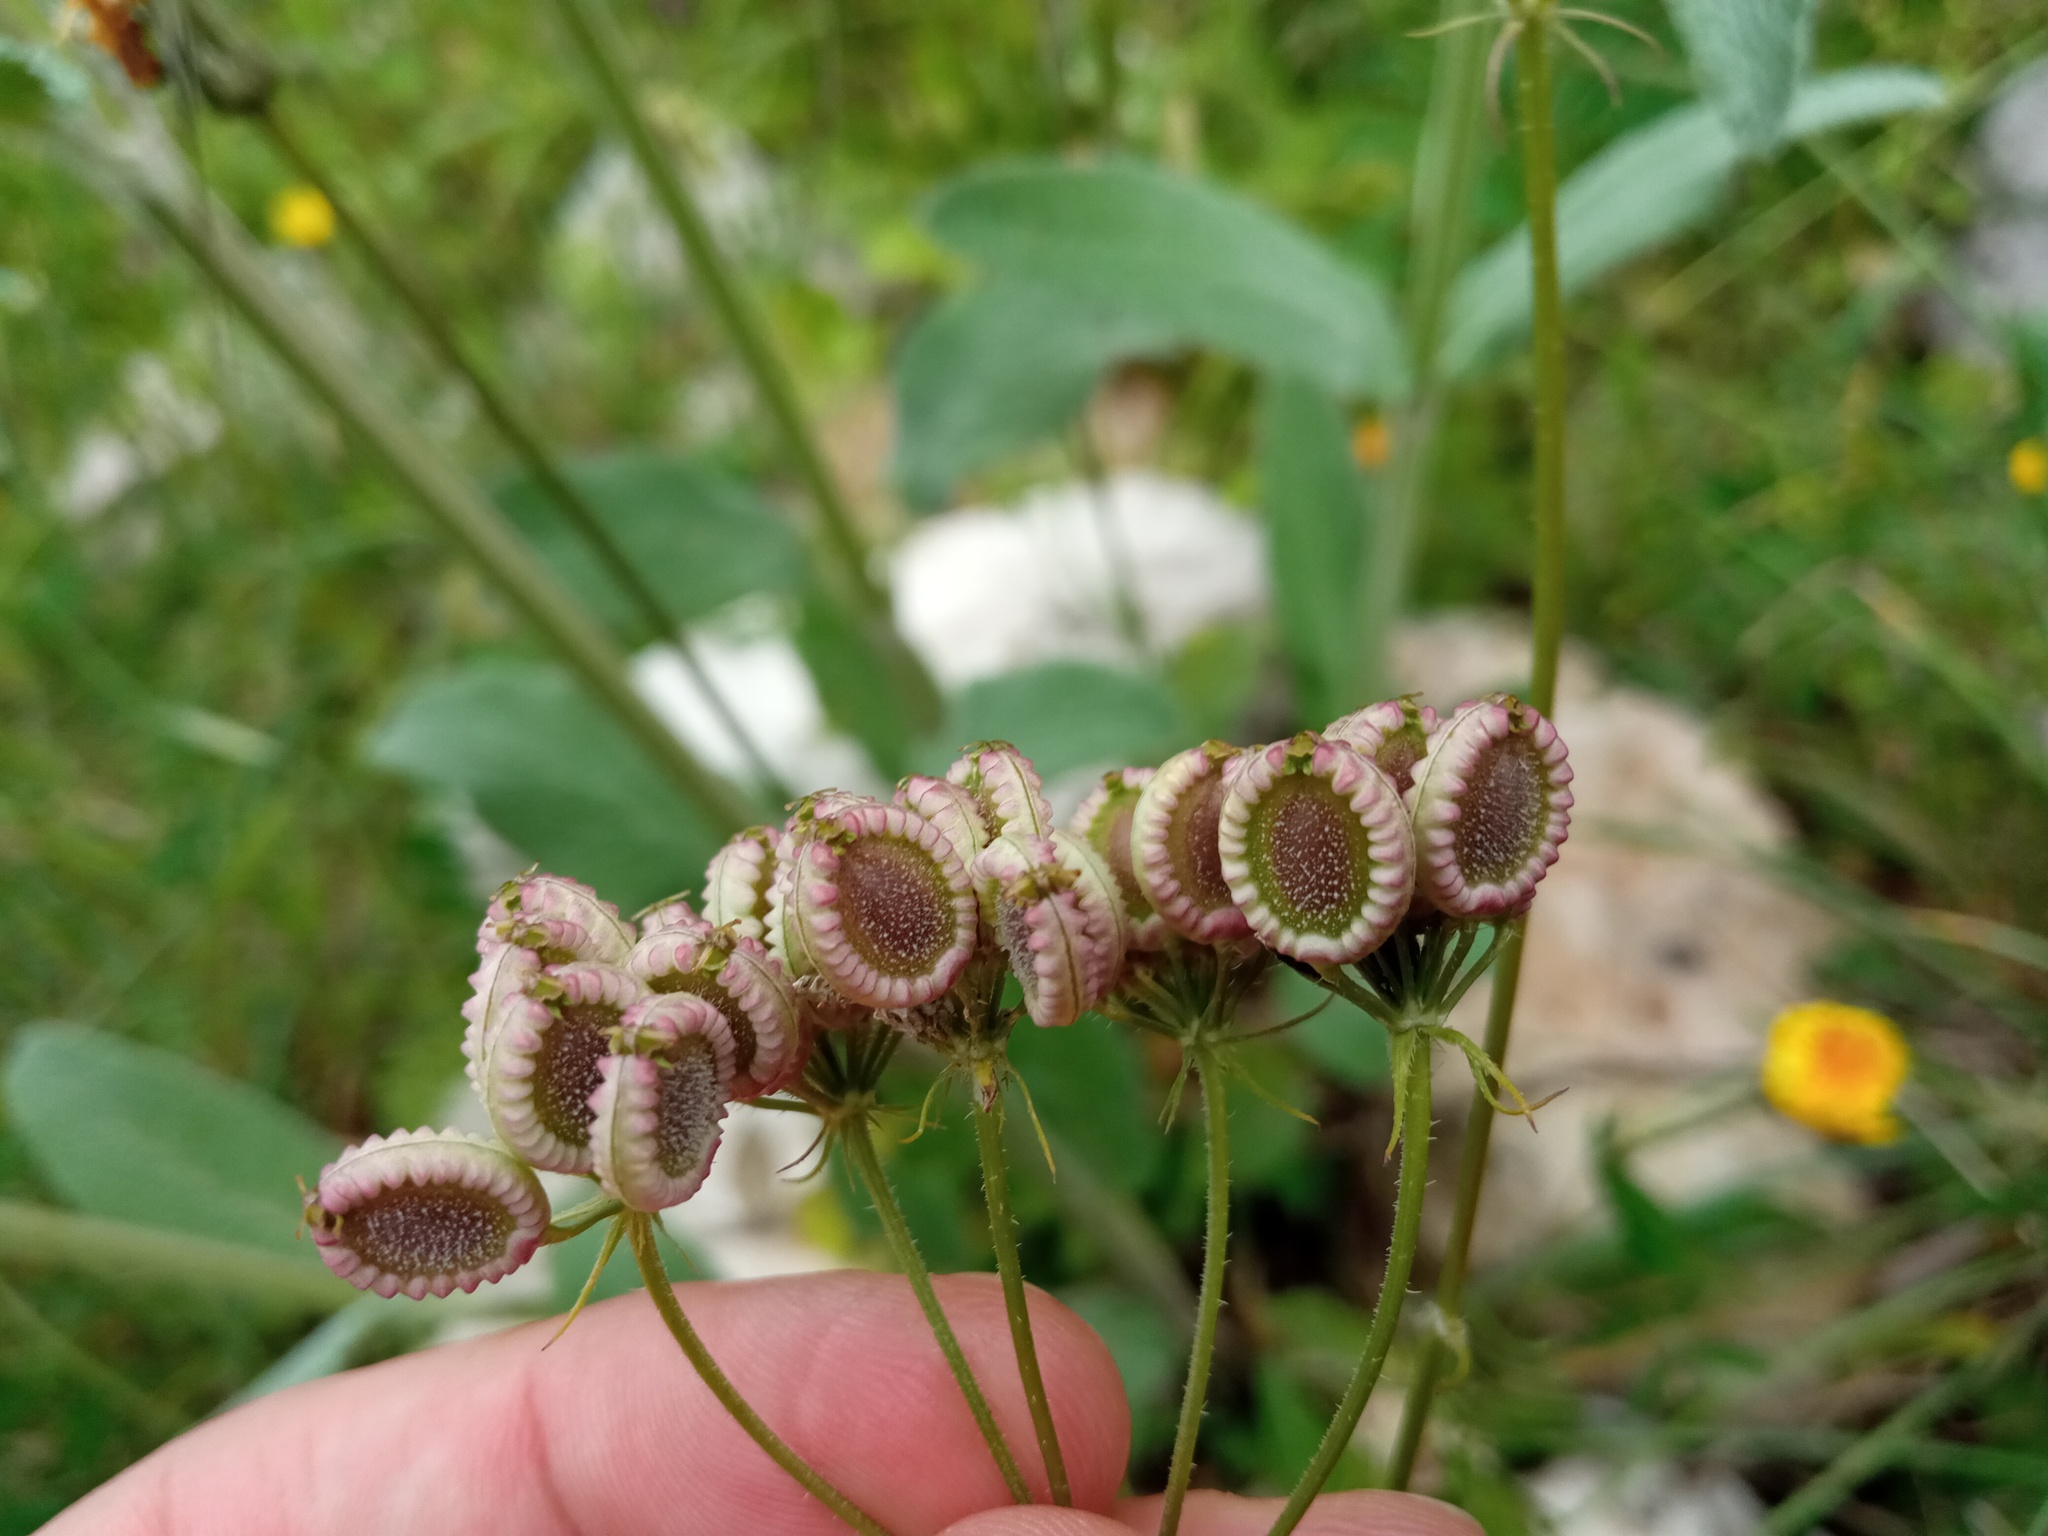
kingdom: Plantae
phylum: Tracheophyta
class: Magnoliopsida
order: Apiales
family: Apiaceae
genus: Tordylium
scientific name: Tordylium apulum
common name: Mediterranean hartwort
